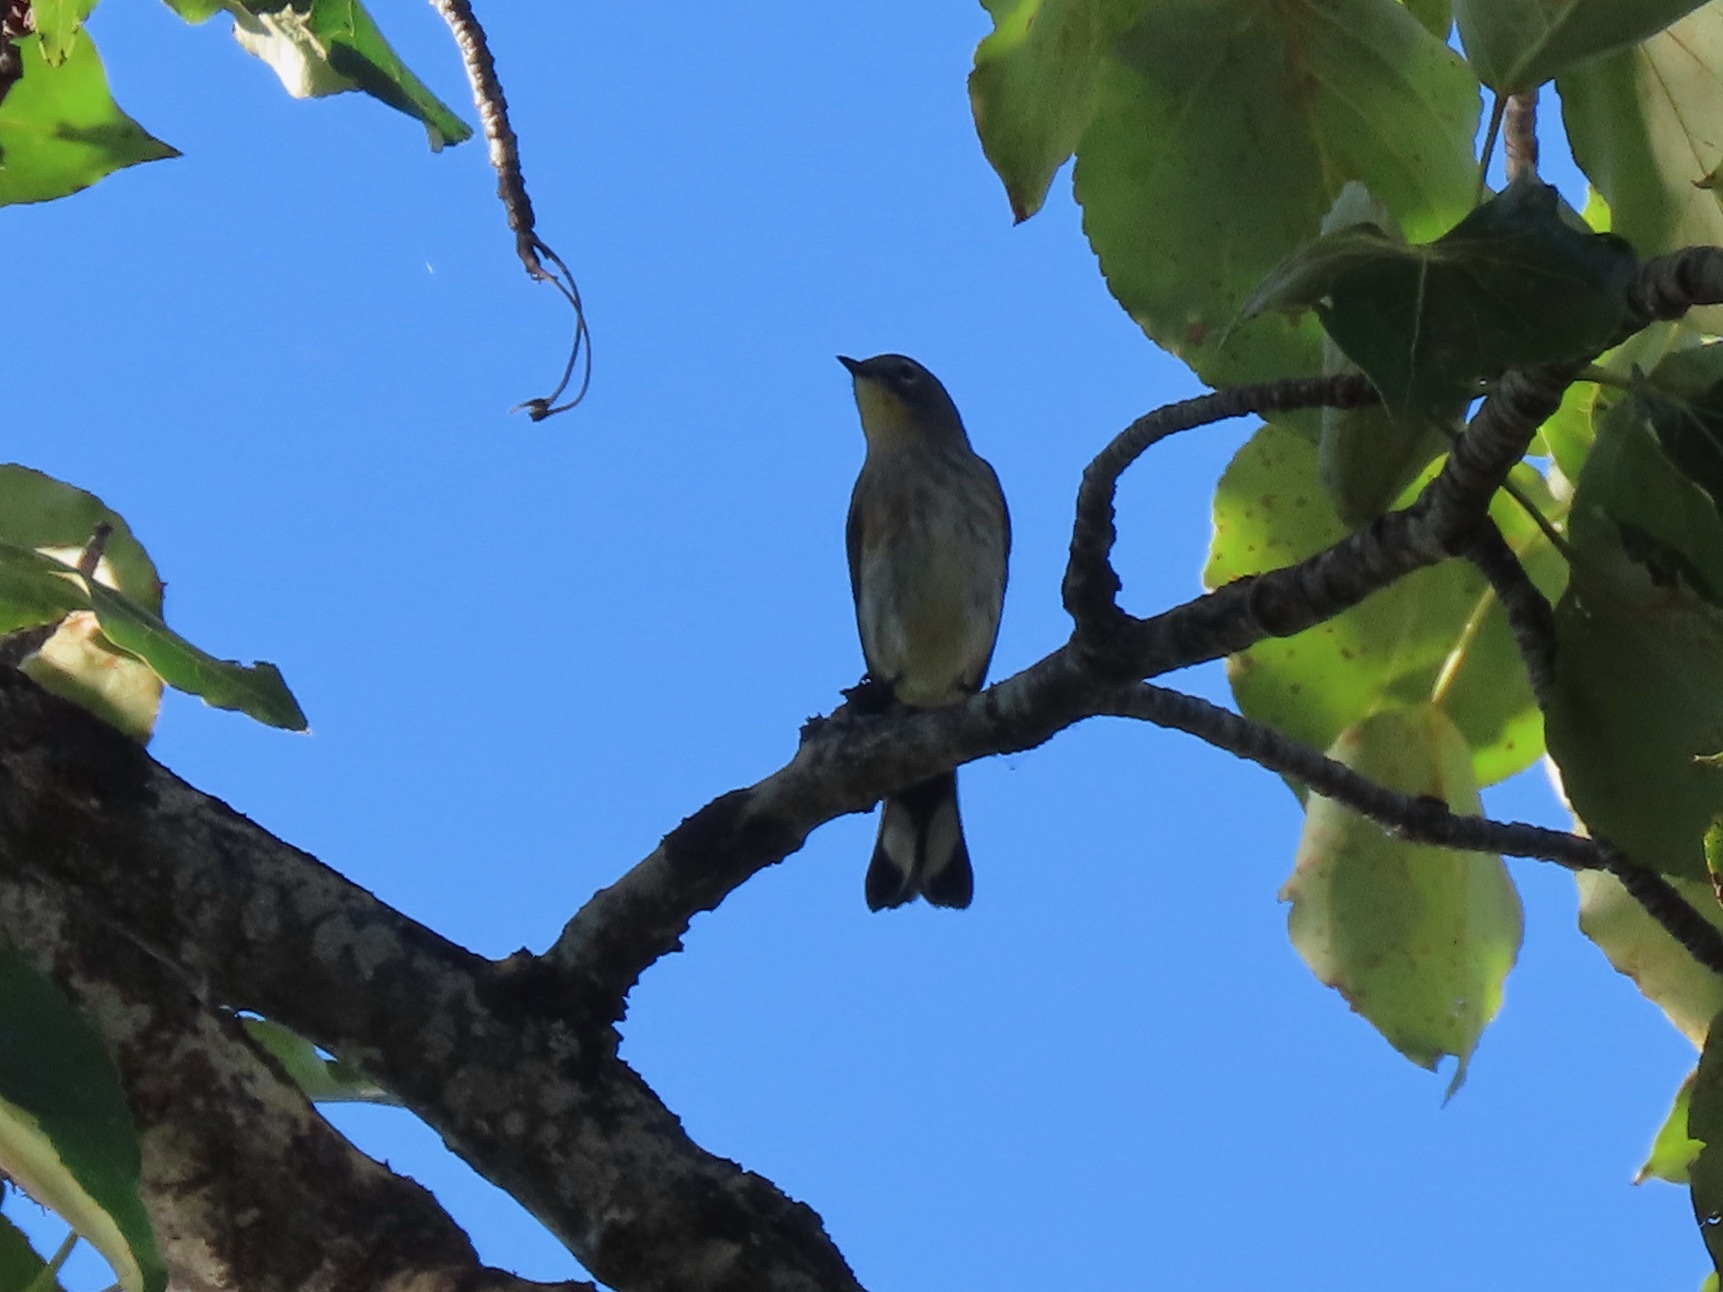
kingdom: Animalia
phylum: Chordata
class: Aves
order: Passeriformes
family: Parulidae
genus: Setophaga
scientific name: Setophaga coronata
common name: Myrtle warbler
